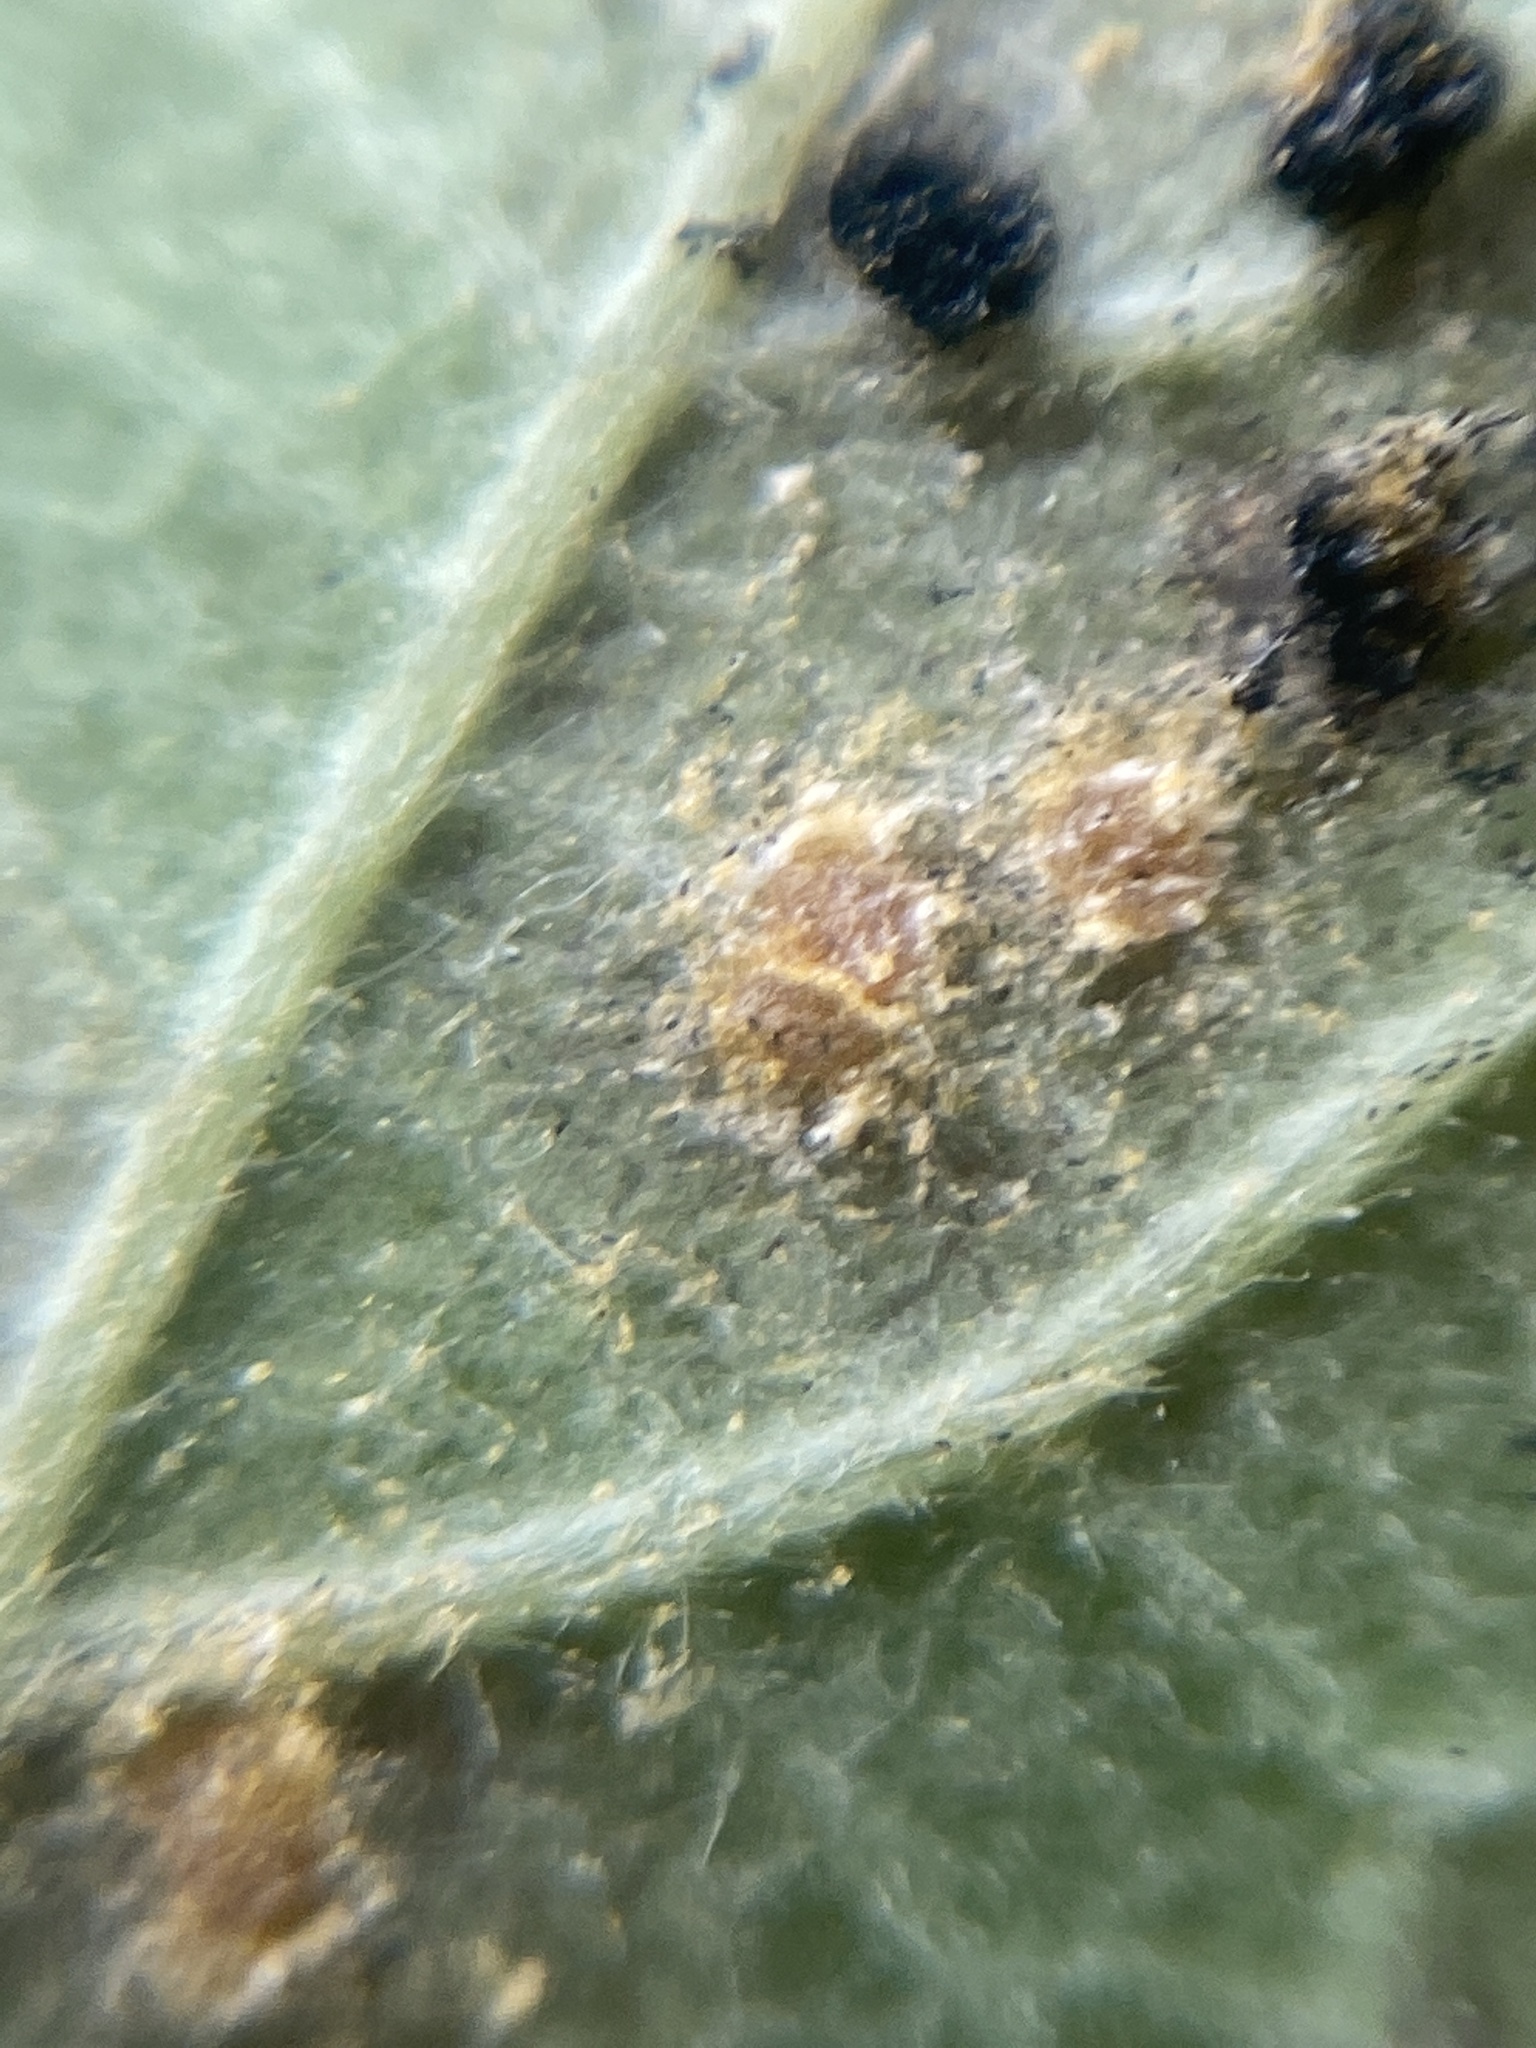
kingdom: Fungi
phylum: Basidiomycota
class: Pucciniomycetes
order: Pucciniales
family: Phragmidiaceae
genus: Phragmidium
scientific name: Phragmidium violaceum
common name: Violet bramble rust
